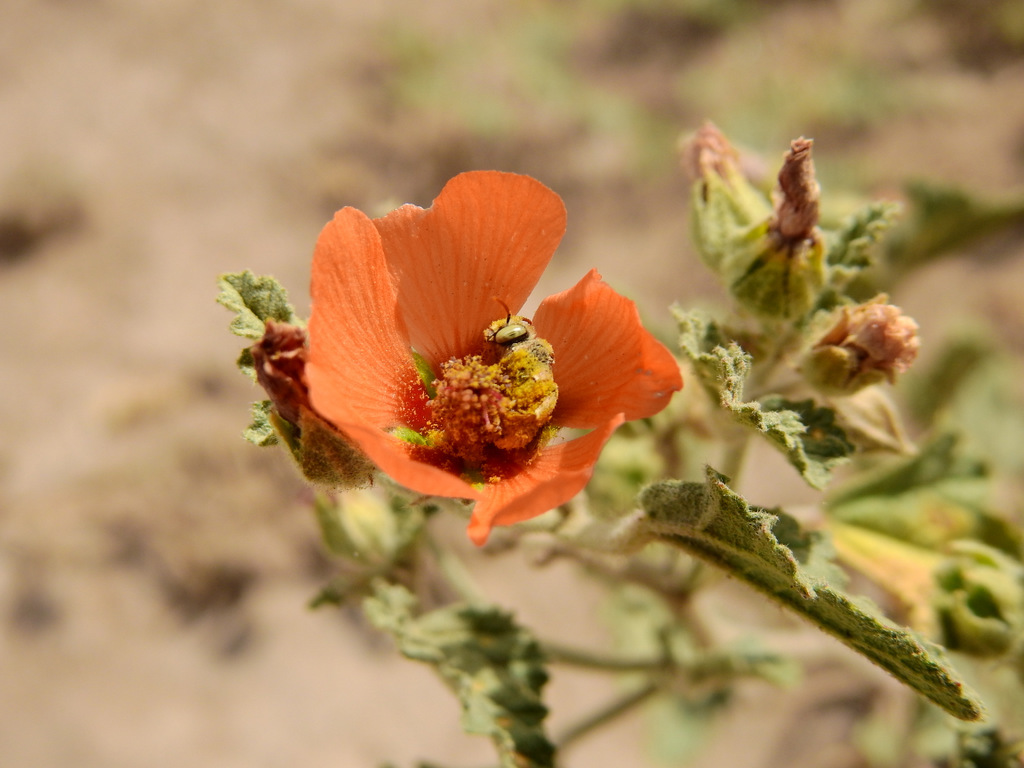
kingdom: Plantae
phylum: Tracheophyta
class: Magnoliopsida
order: Malvales
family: Malvaceae
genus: Sphaeralcea
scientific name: Sphaeralcea miniata
